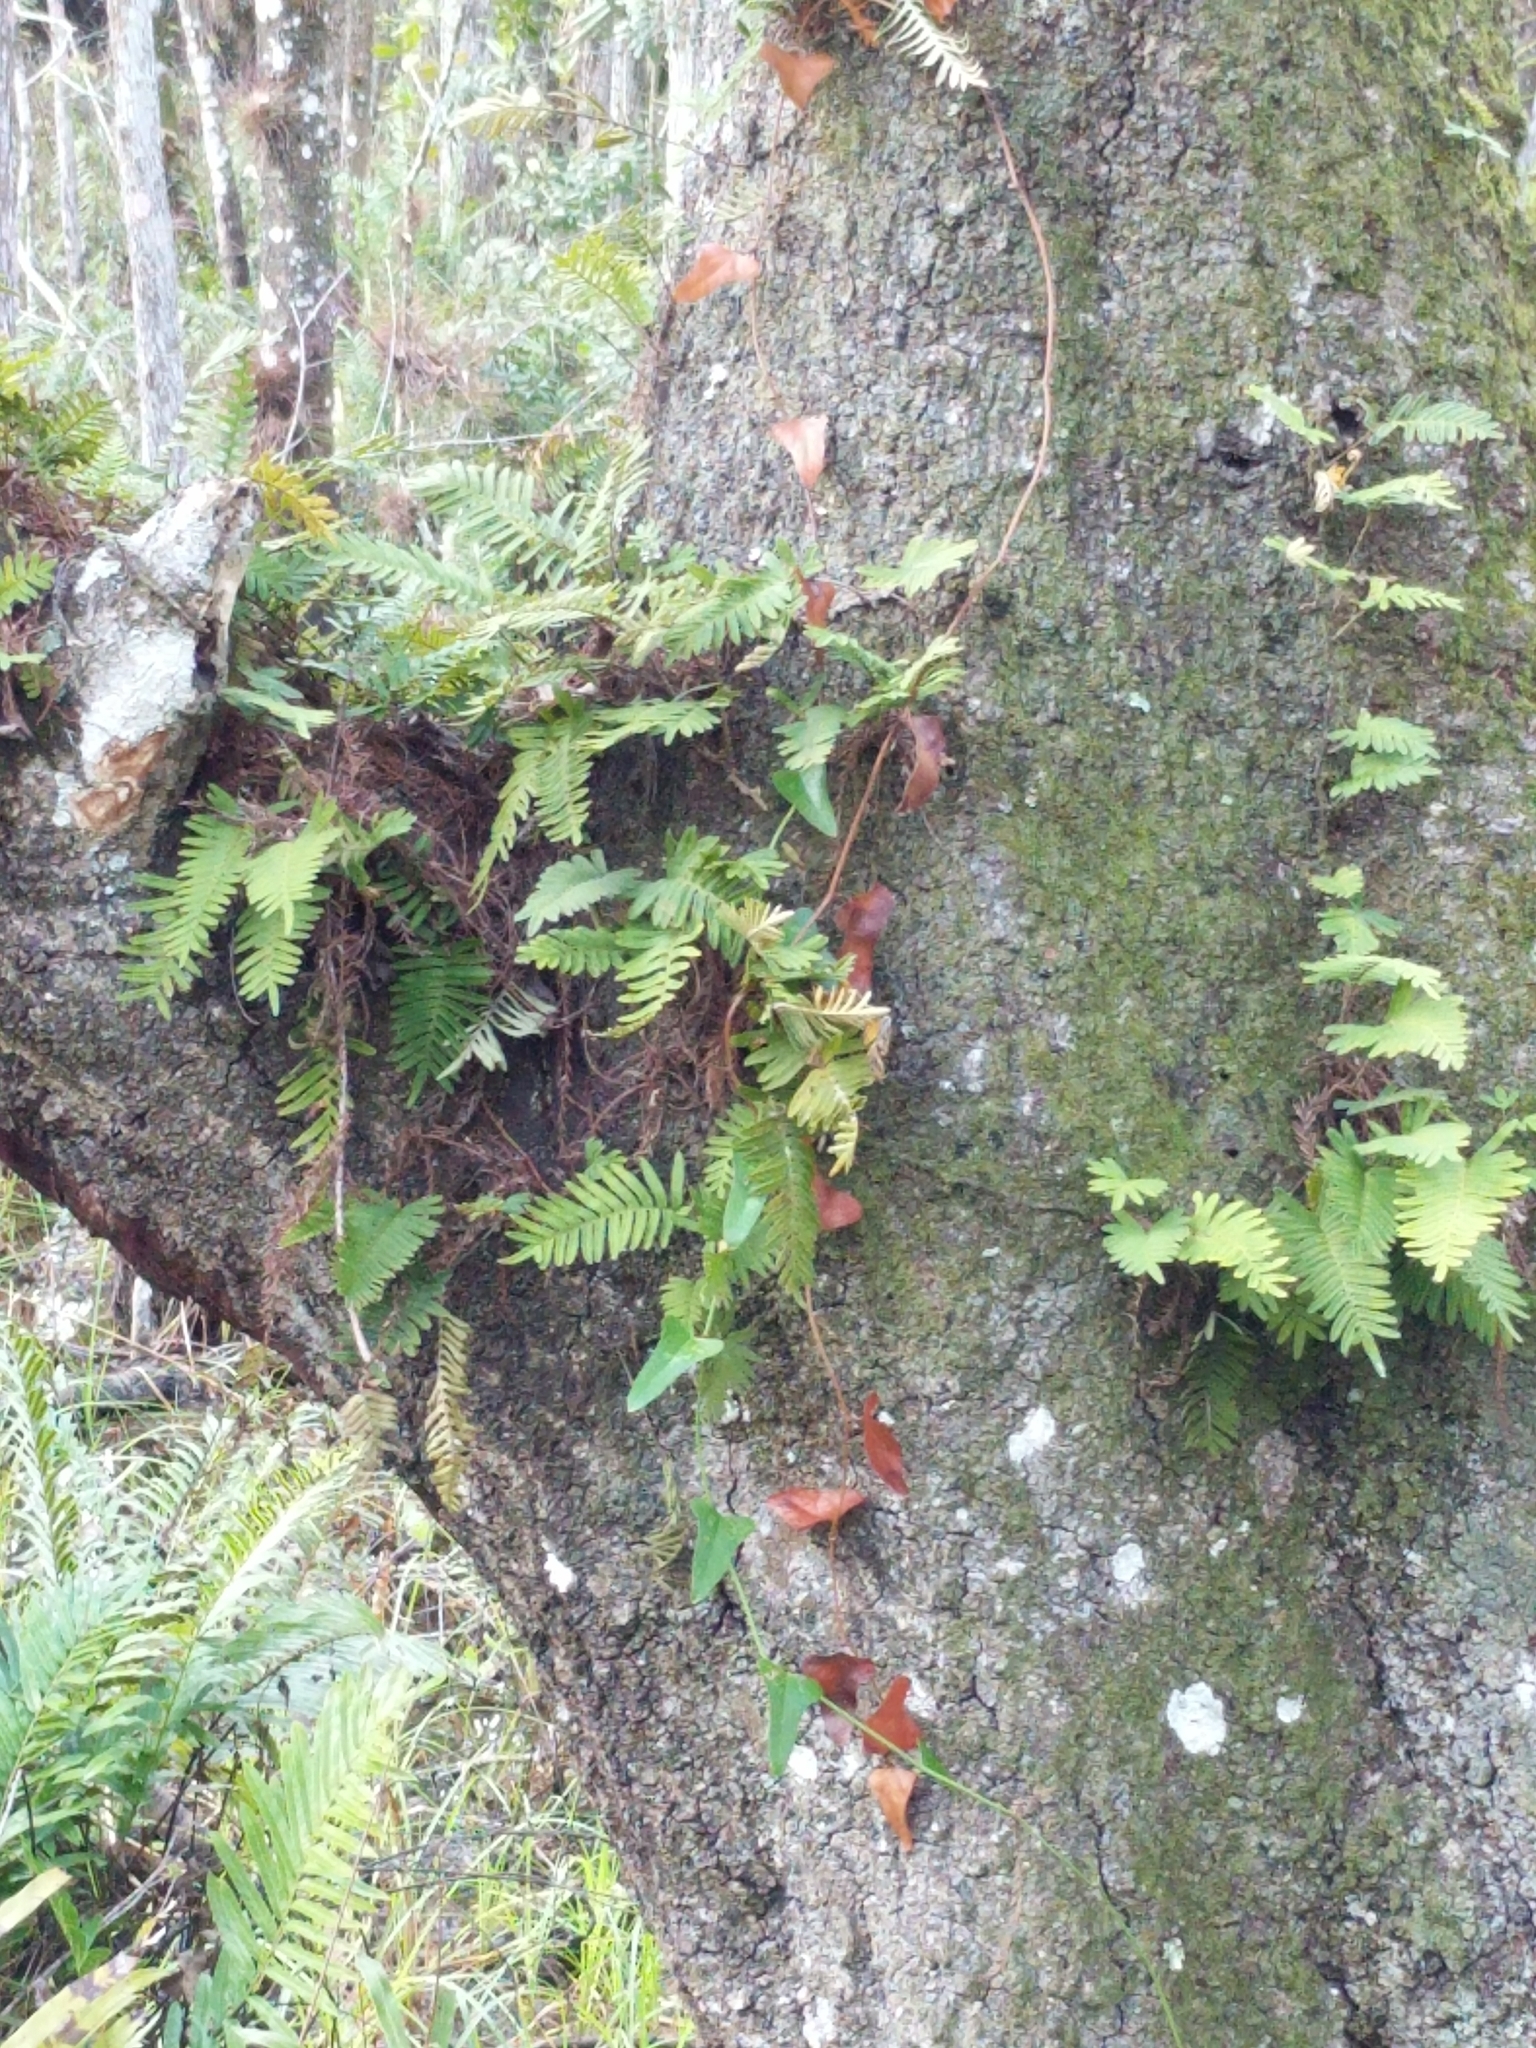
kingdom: Plantae
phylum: Tracheophyta
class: Polypodiopsida
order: Polypodiales
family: Polypodiaceae
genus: Pleopeltis
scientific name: Pleopeltis michauxiana
